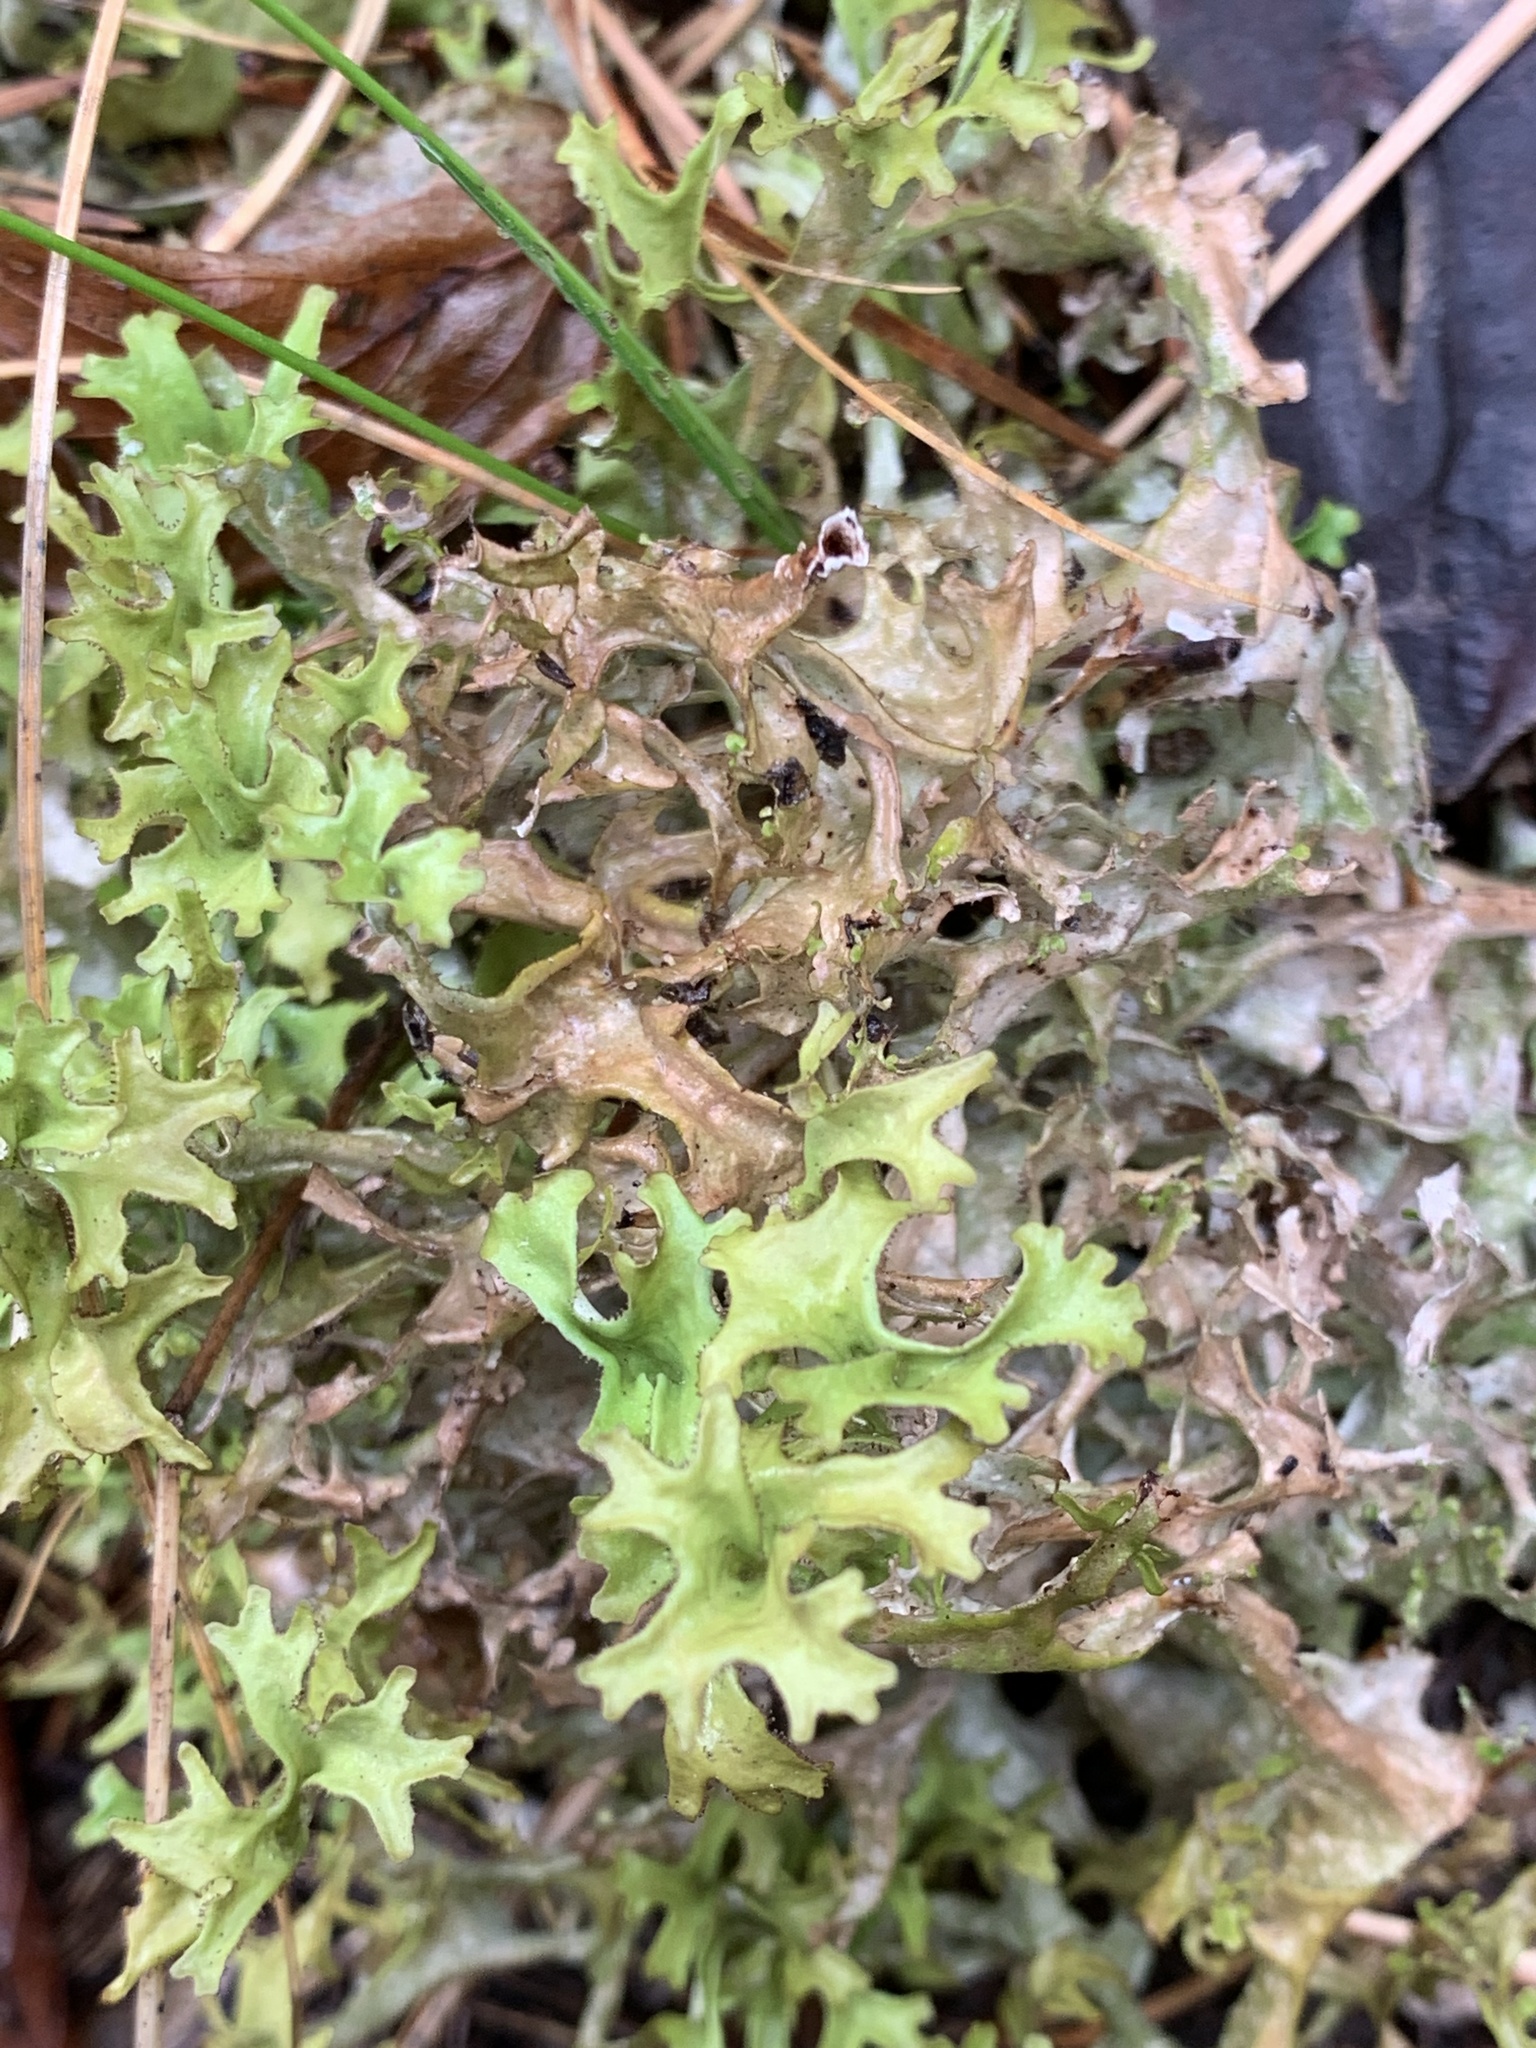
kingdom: Fungi
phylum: Ascomycota
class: Lecanoromycetes
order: Lecanorales
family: Parmeliaceae
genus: Cetraria
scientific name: Cetraria islandica
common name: Iceland lichen
